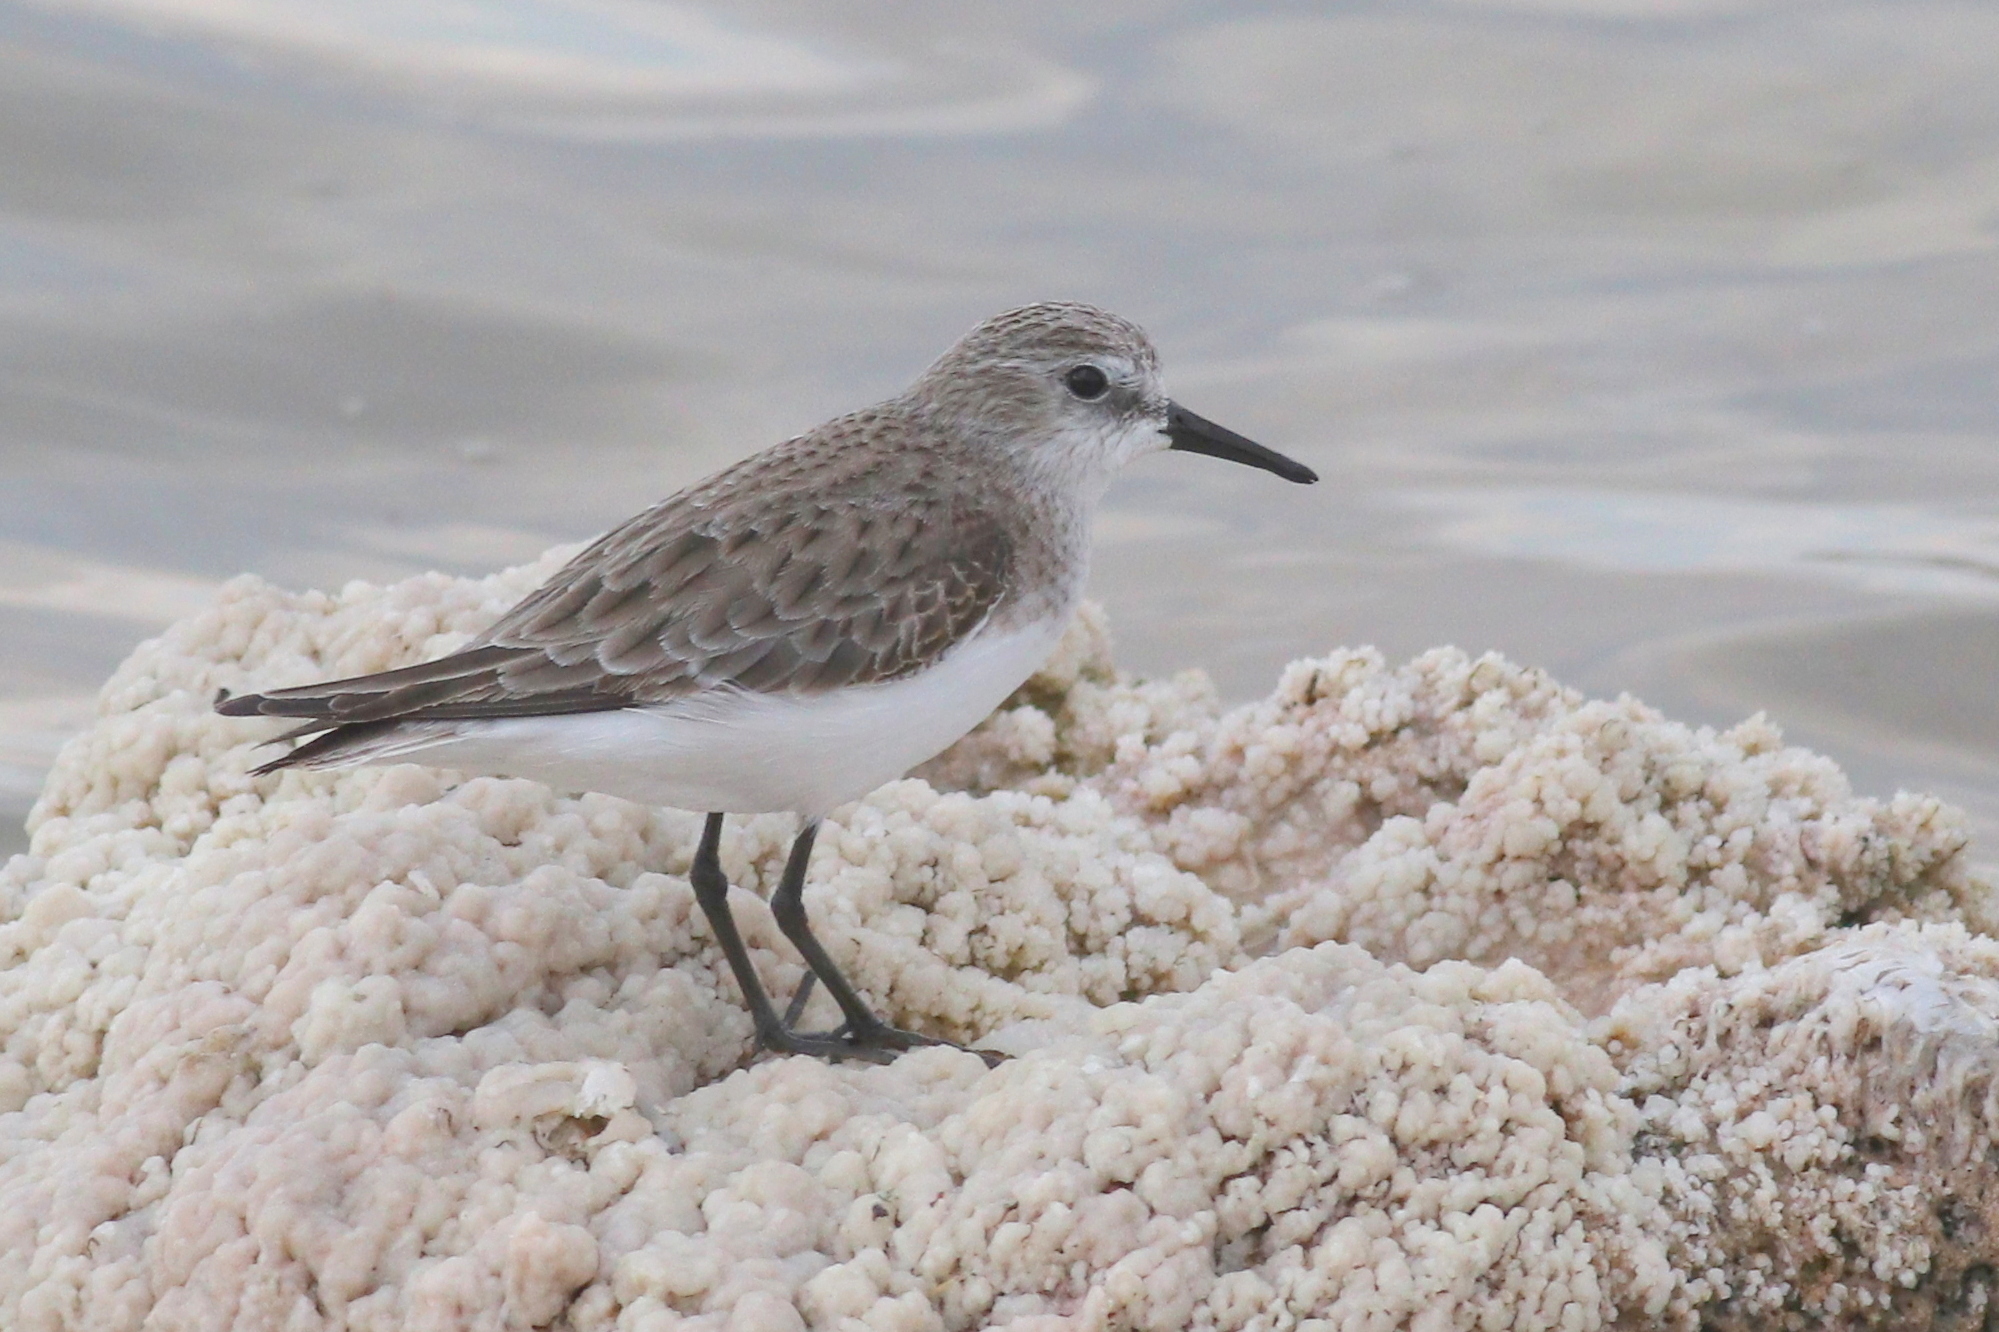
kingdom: Animalia
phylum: Chordata
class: Aves
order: Charadriiformes
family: Scolopacidae
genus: Calidris
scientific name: Calidris minuta
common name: Little stint
